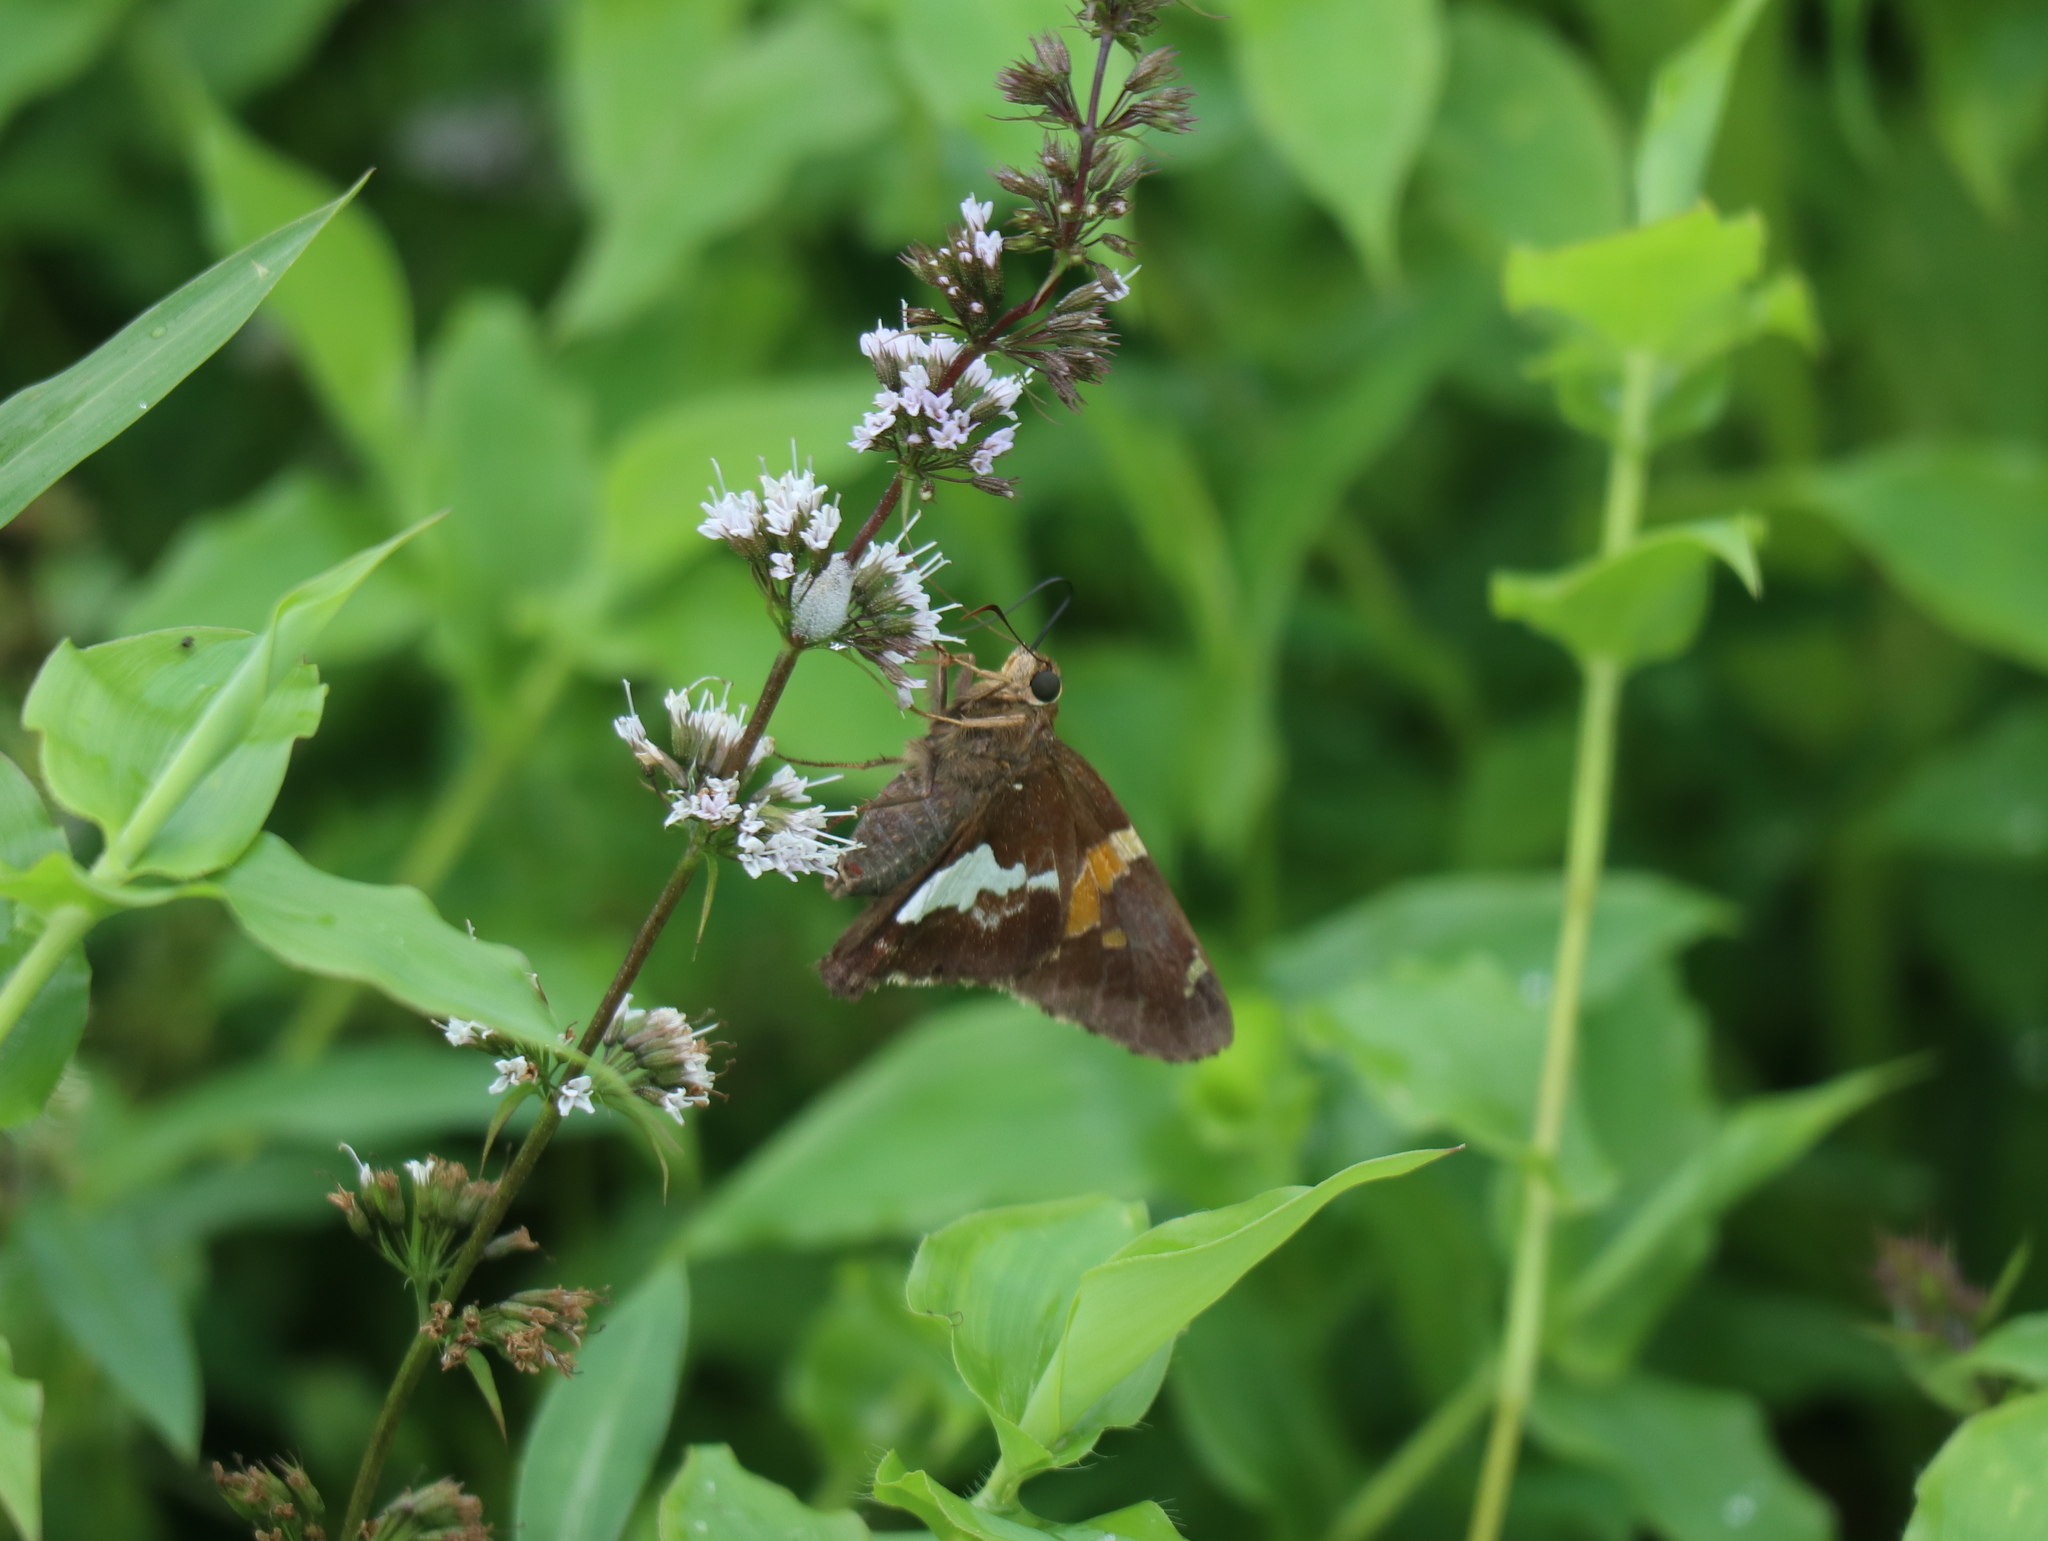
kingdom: Animalia
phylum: Arthropoda
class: Insecta
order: Lepidoptera
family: Hesperiidae
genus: Epargyreus
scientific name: Epargyreus clarus
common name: Silver-spotted skipper
